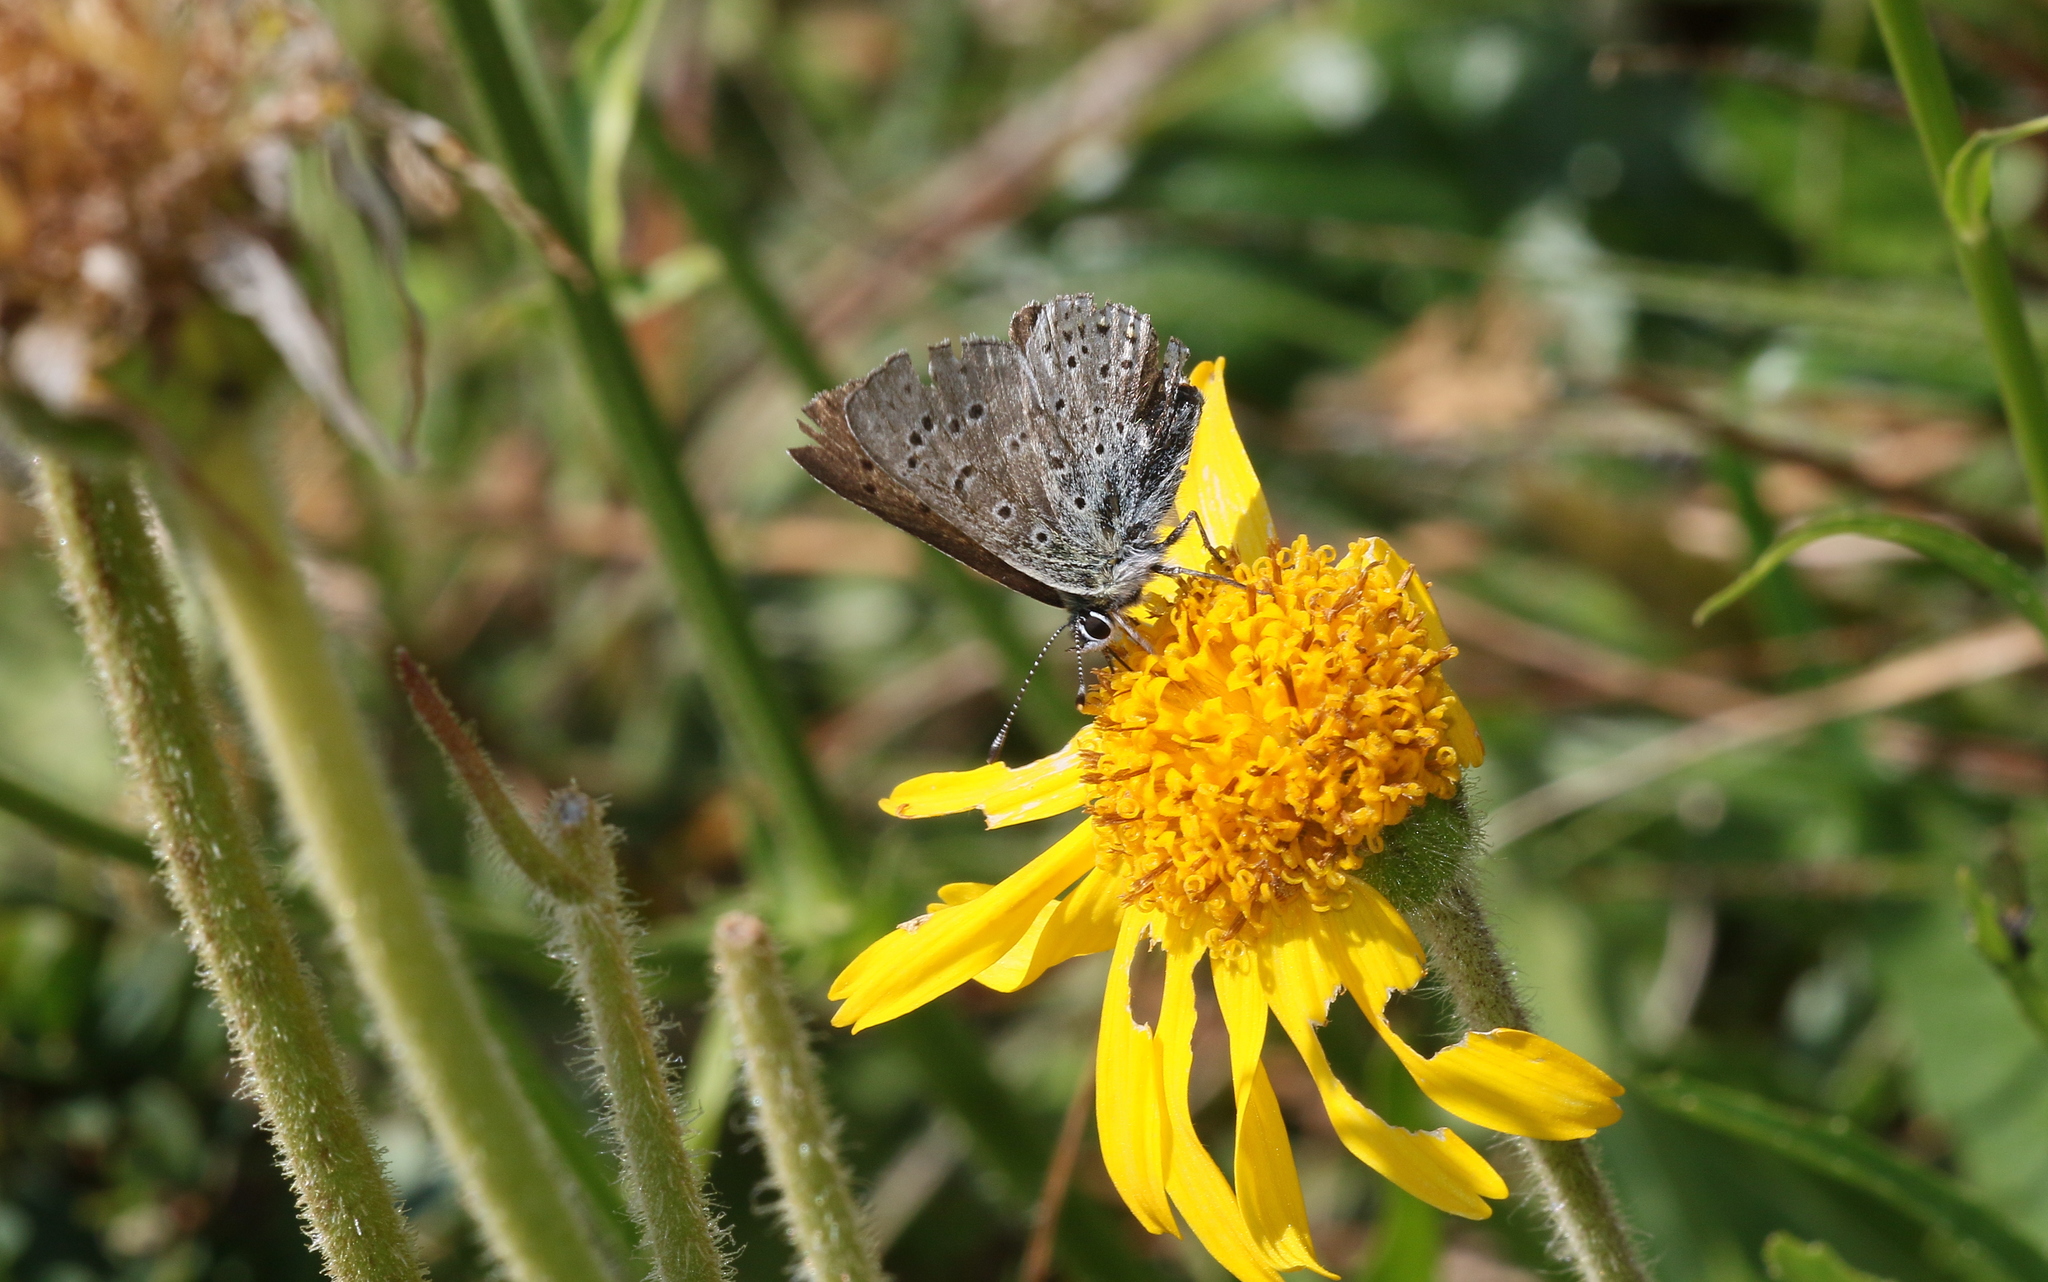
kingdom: Animalia
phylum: Arthropoda
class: Insecta
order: Lepidoptera
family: Lycaenidae
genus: Loweia
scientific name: Loweia tityrus
